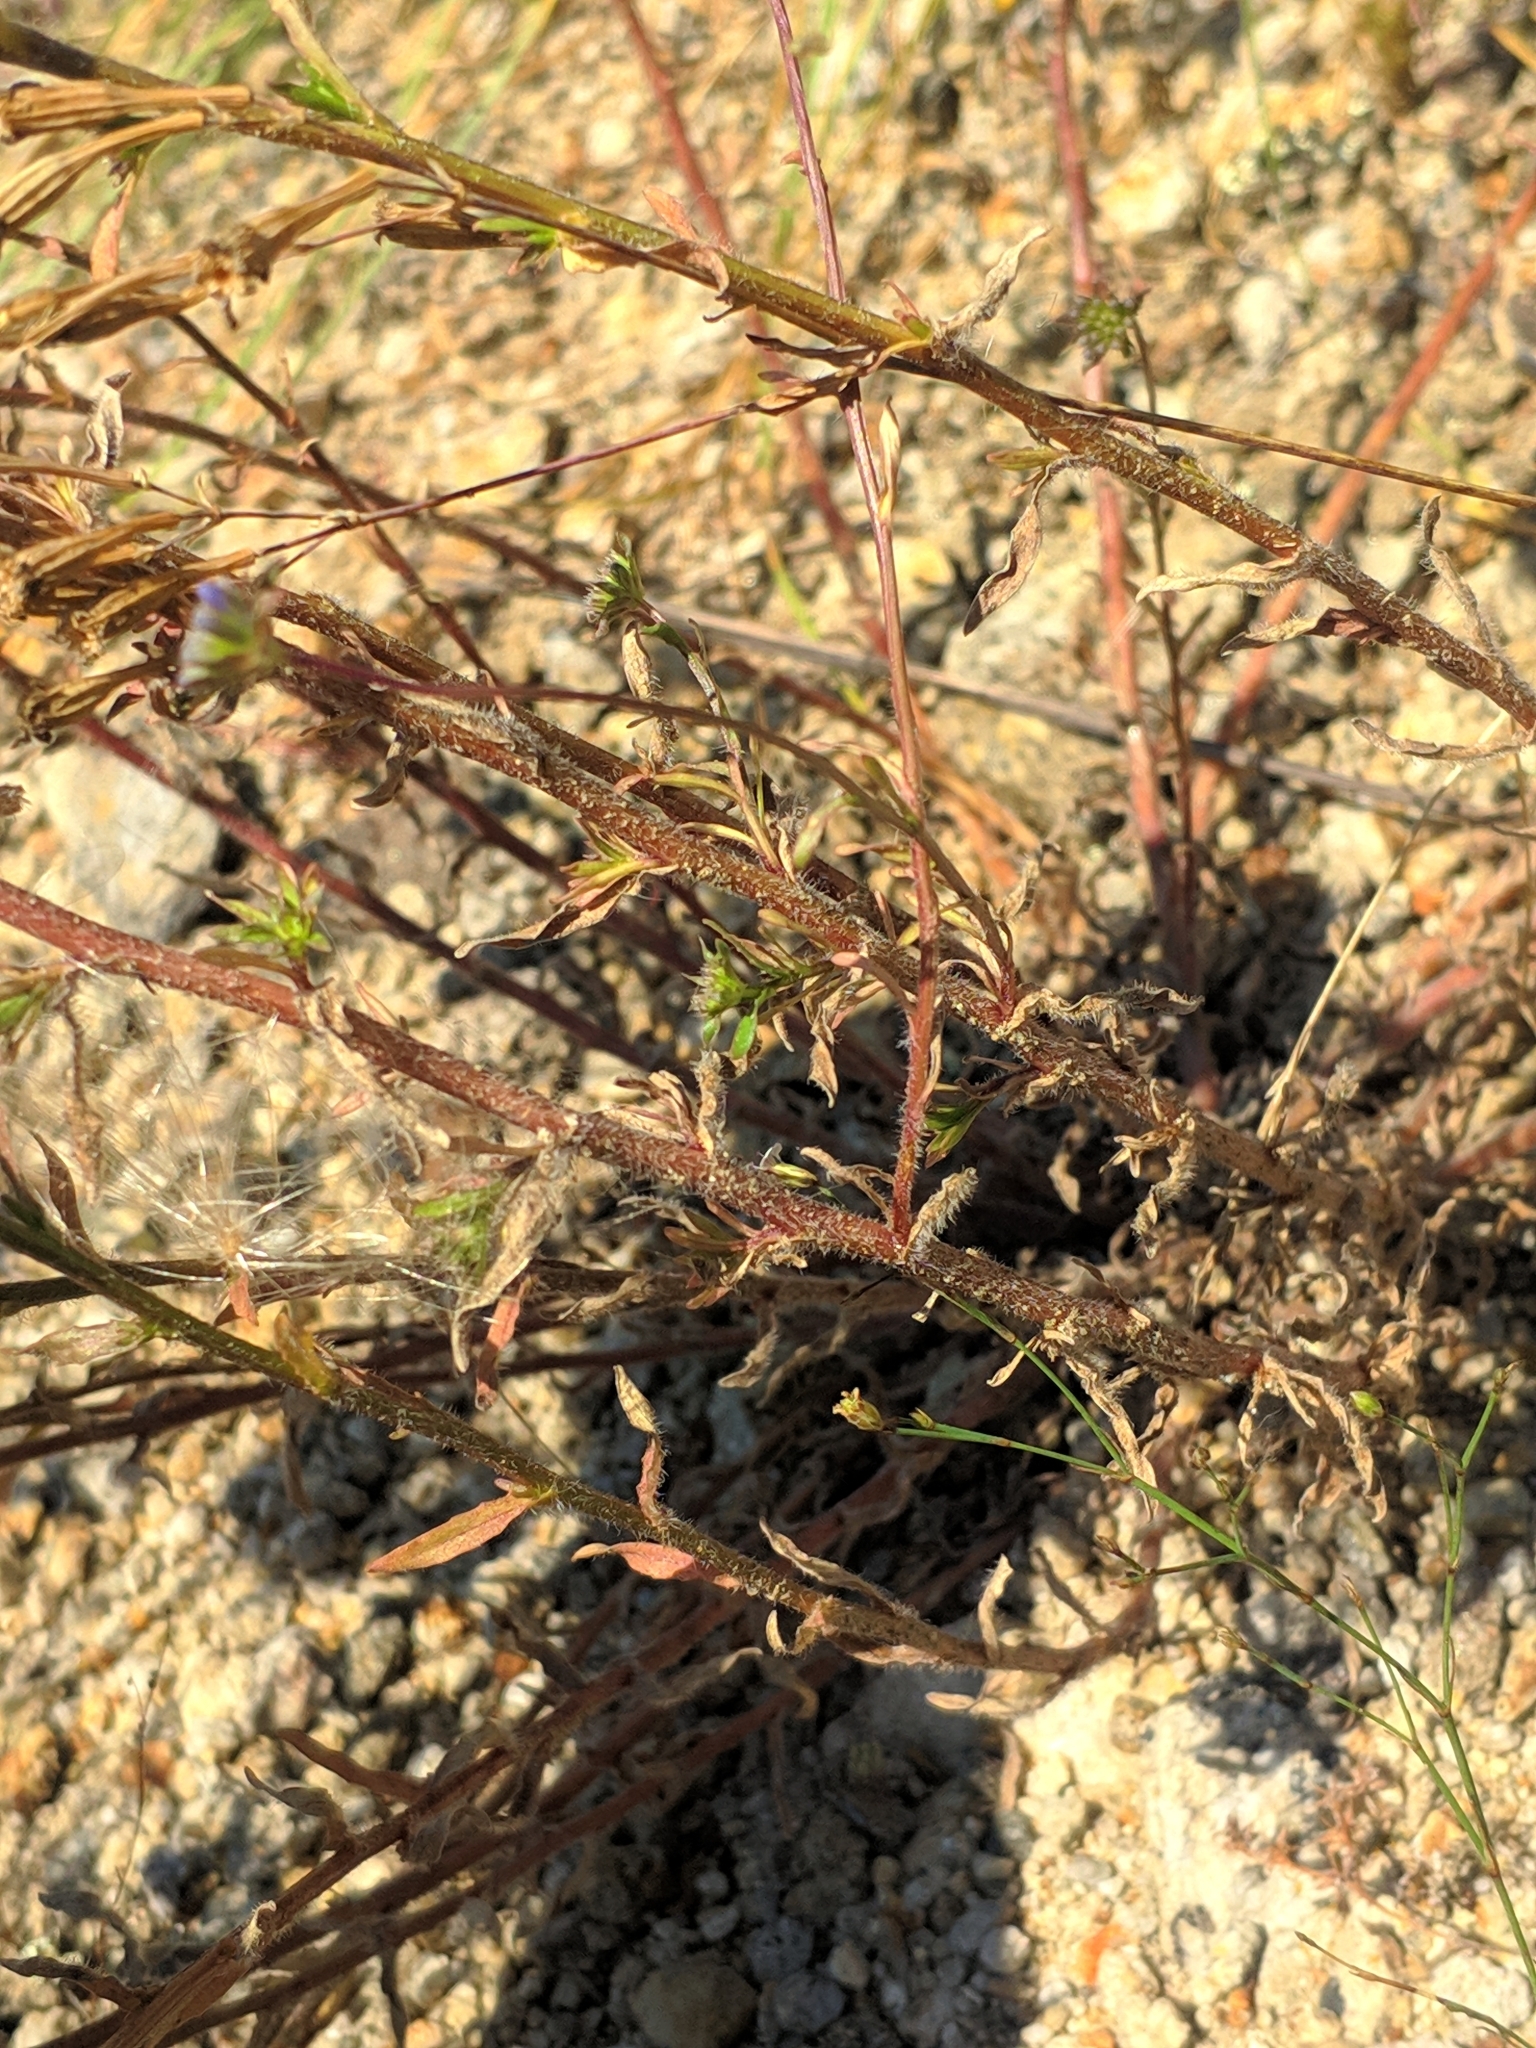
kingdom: Plantae
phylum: Tracheophyta
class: Magnoliopsida
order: Asterales
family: Campanulaceae
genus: Jasione
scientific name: Jasione heldreichii
